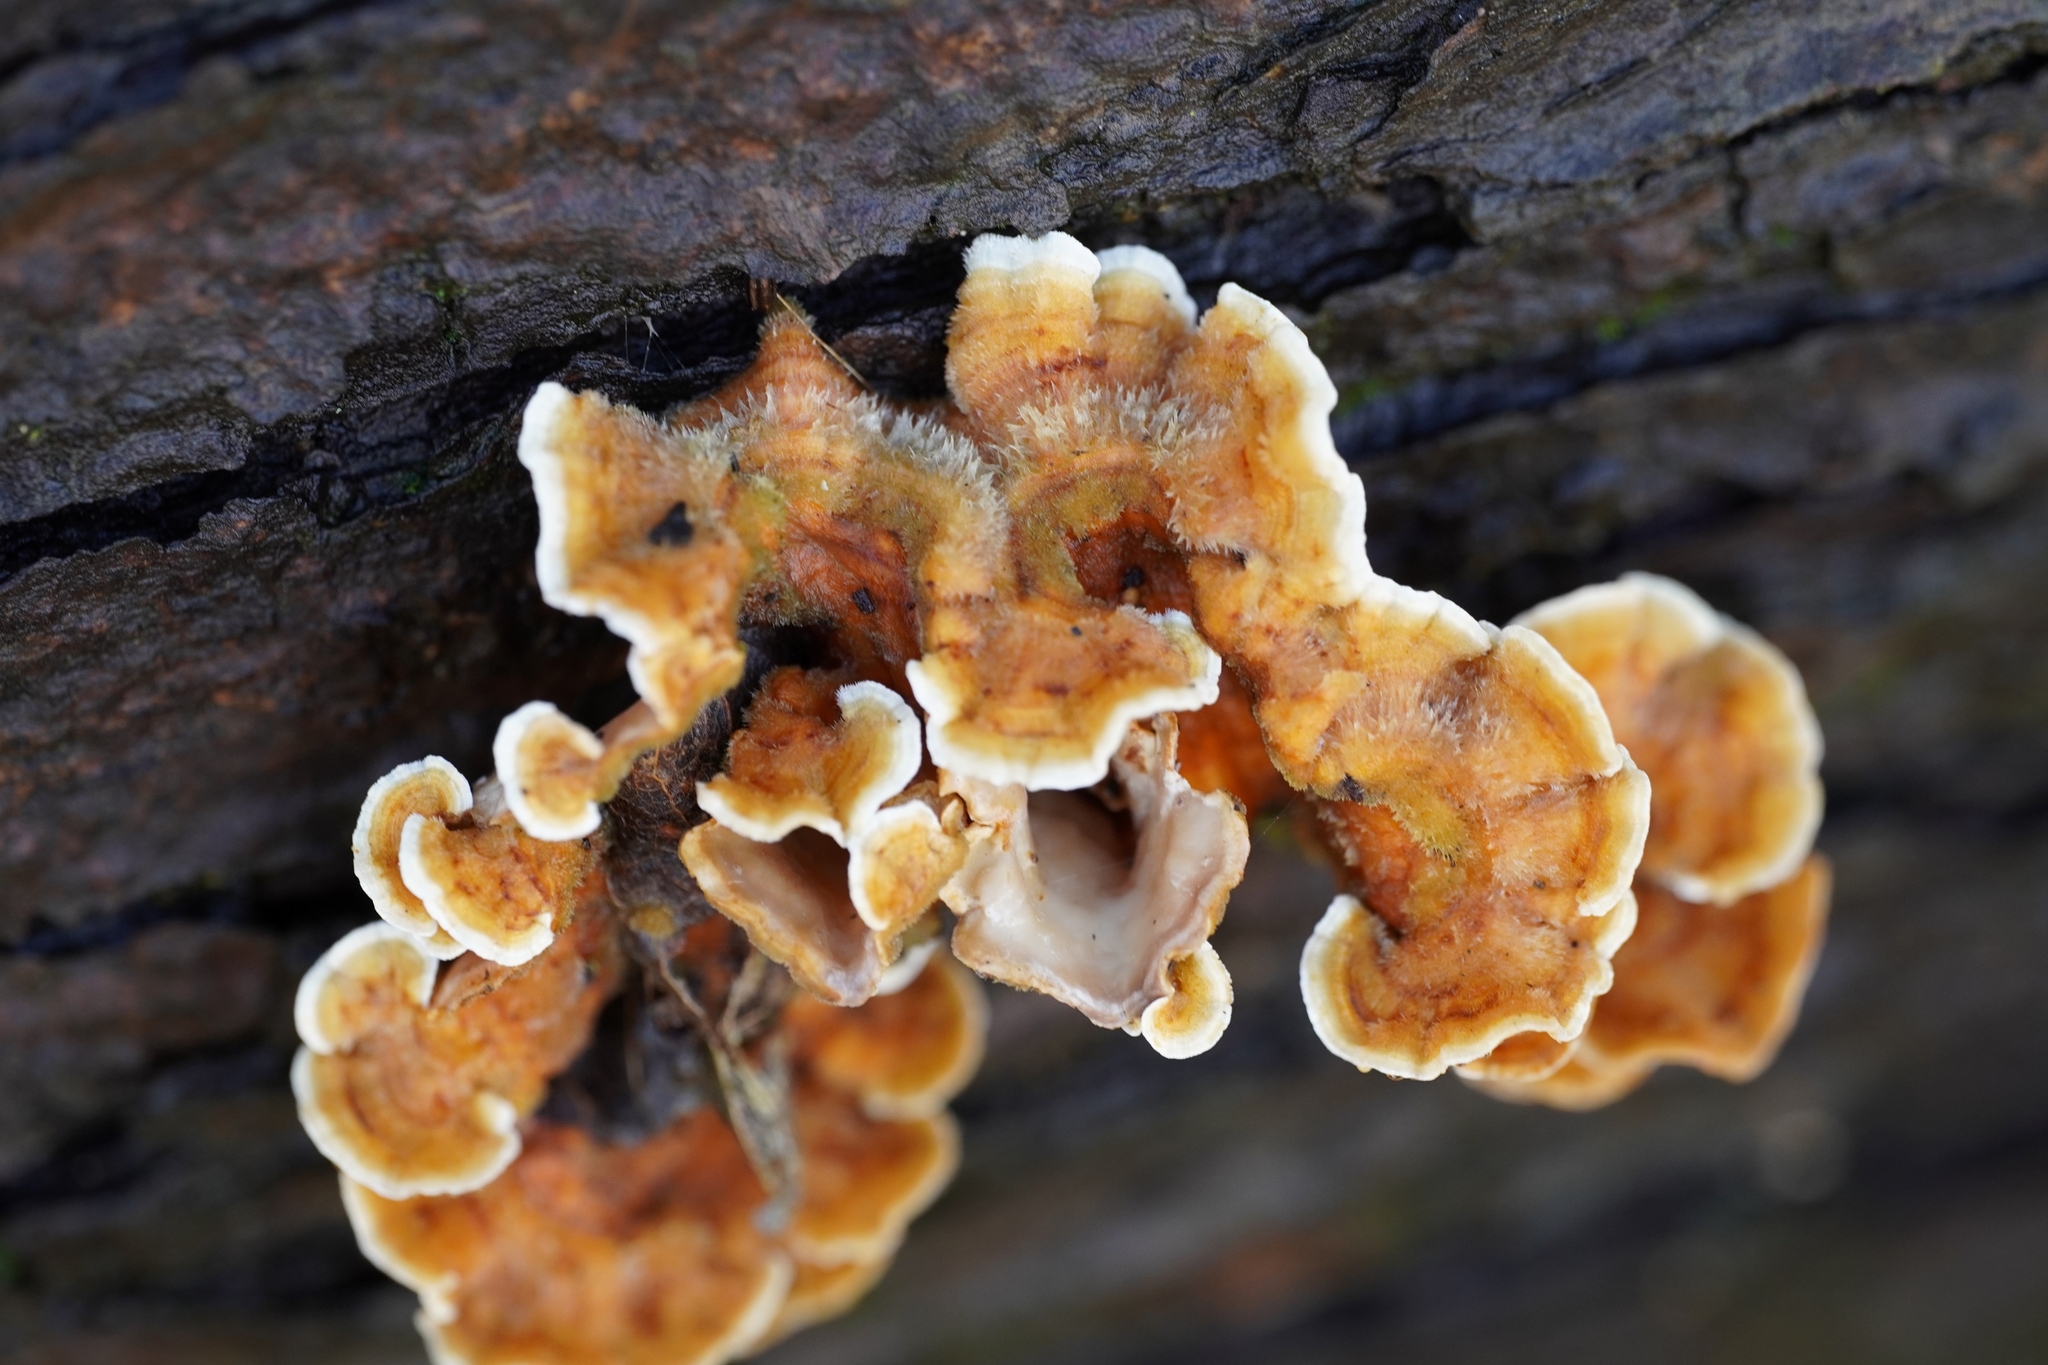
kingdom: Fungi
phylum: Basidiomycota
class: Agaricomycetes
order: Russulales
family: Stereaceae
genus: Stereum
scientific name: Stereum hirsutum
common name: Hairy curtain crust
